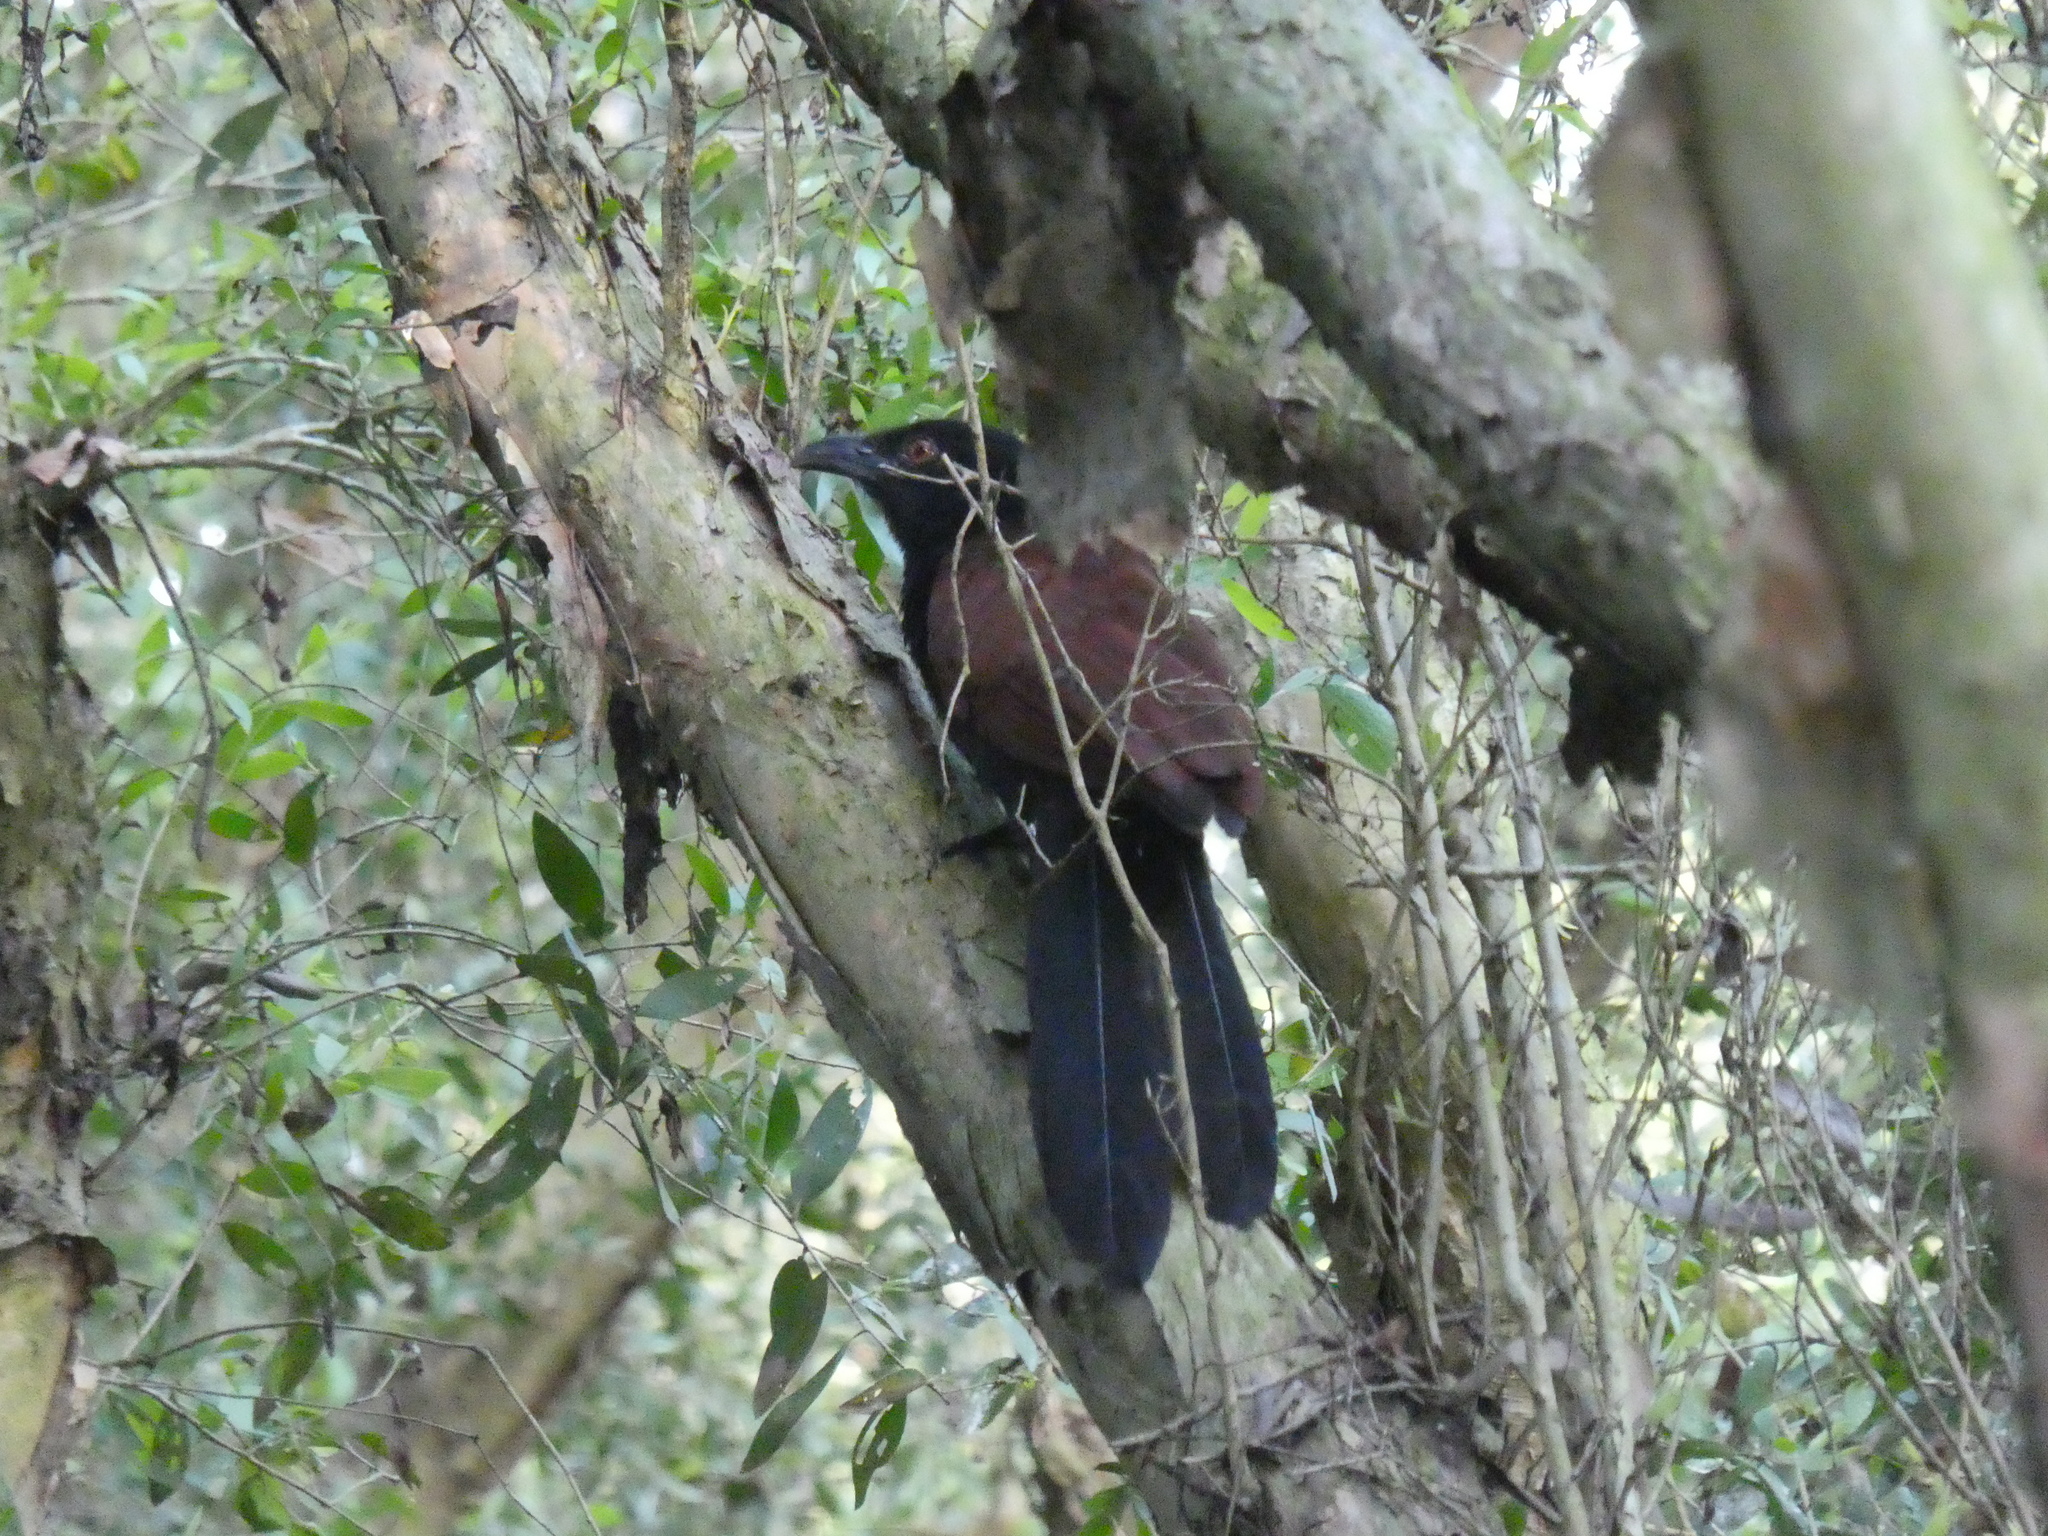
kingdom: Animalia
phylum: Chordata
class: Aves
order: Cuculiformes
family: Cuculidae
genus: Centropus
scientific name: Centropus sinensis
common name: Greater coucal
